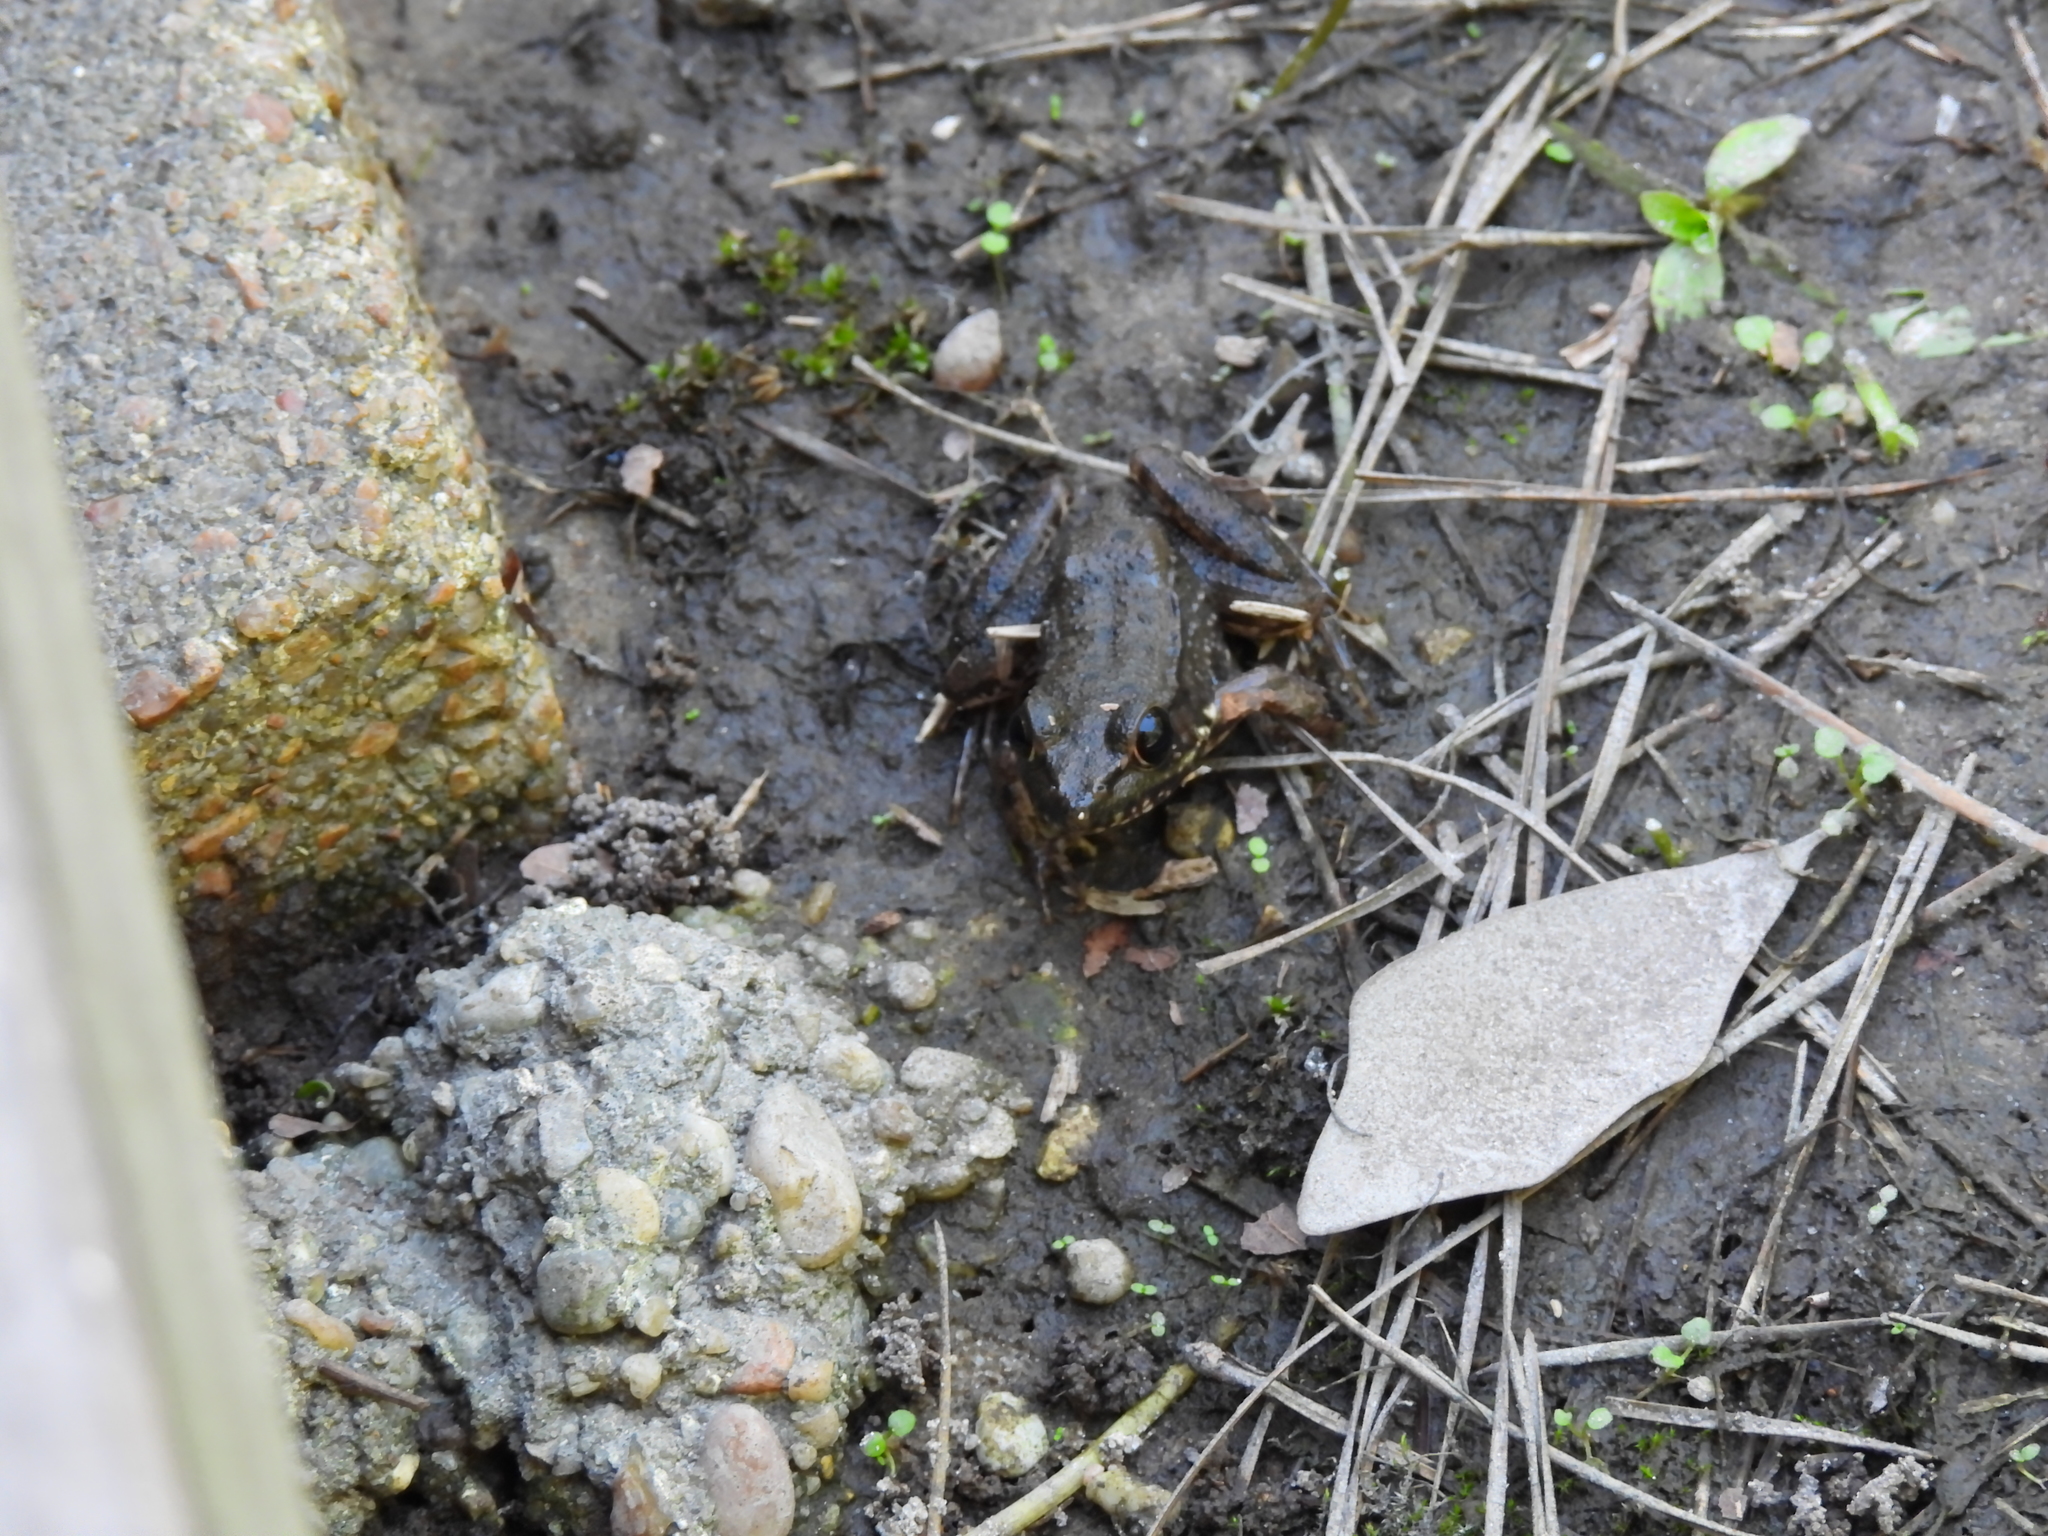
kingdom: Animalia
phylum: Chordata
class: Amphibia
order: Anura
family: Ranidae
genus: Lithobates
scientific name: Lithobates clamitans
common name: Green frog
